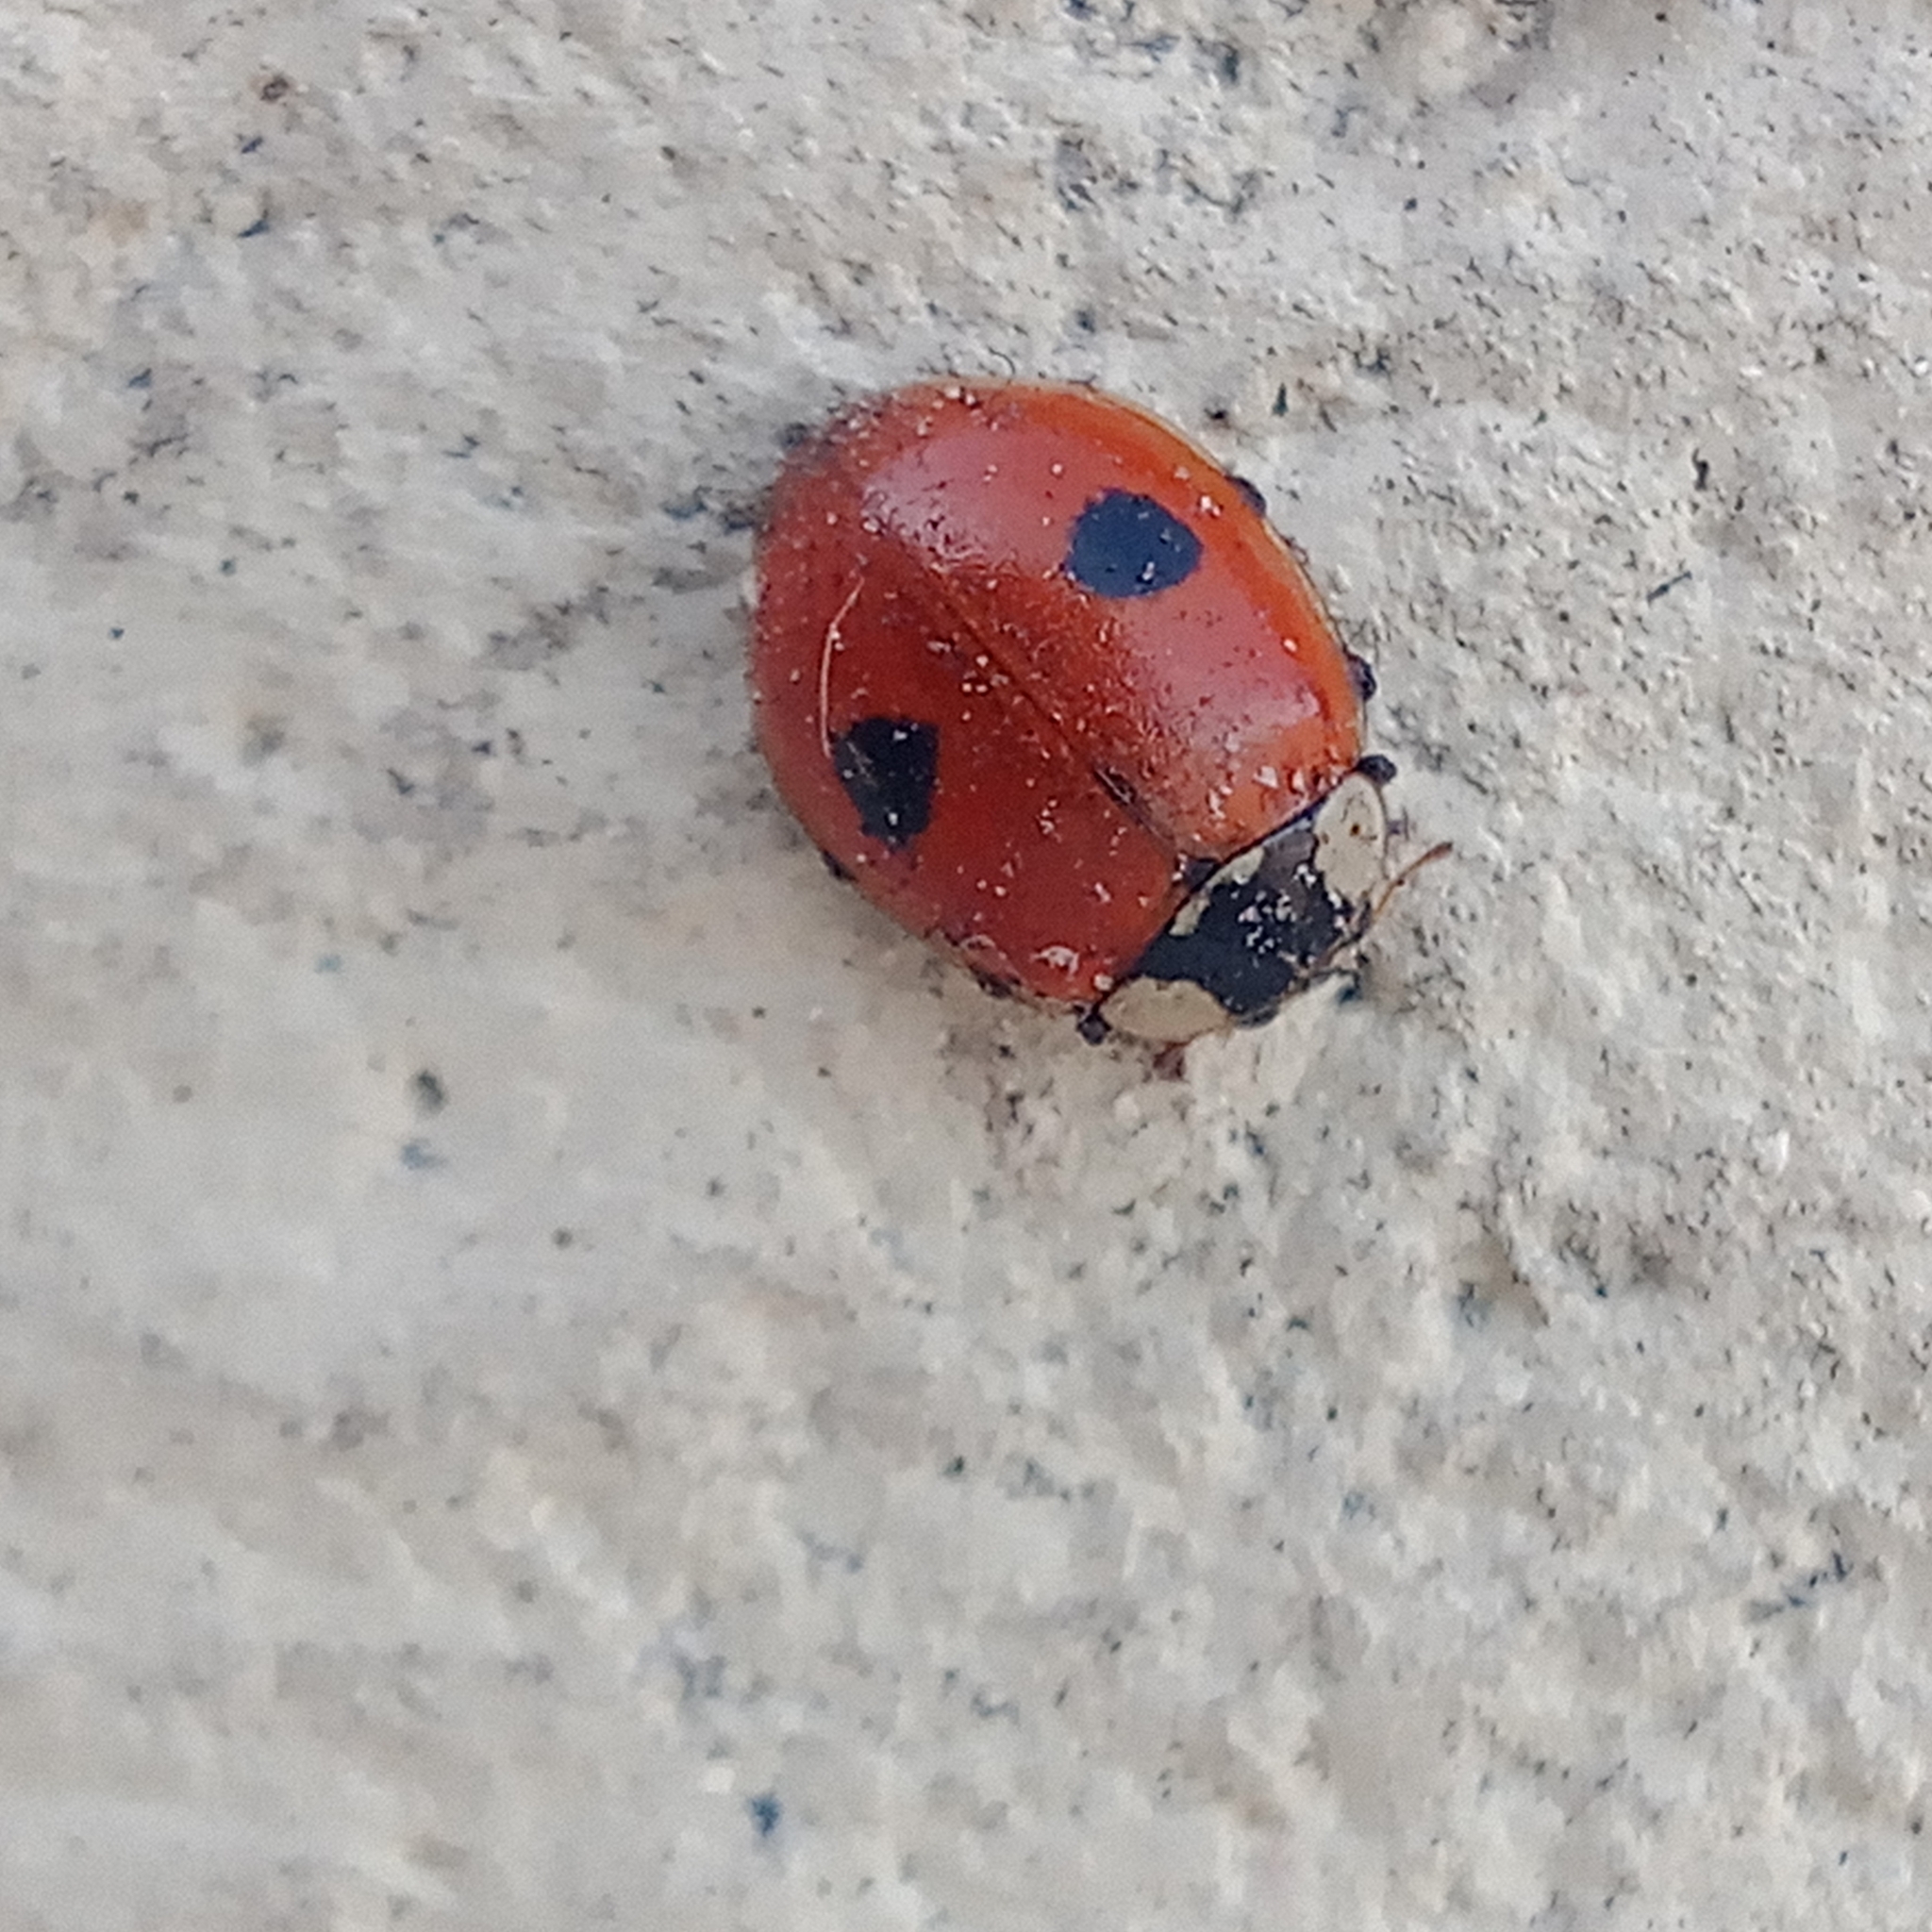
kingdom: Animalia
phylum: Arthropoda
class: Insecta
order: Coleoptera
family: Coccinellidae
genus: Adalia
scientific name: Adalia bipunctata
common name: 2-spot ladybird
